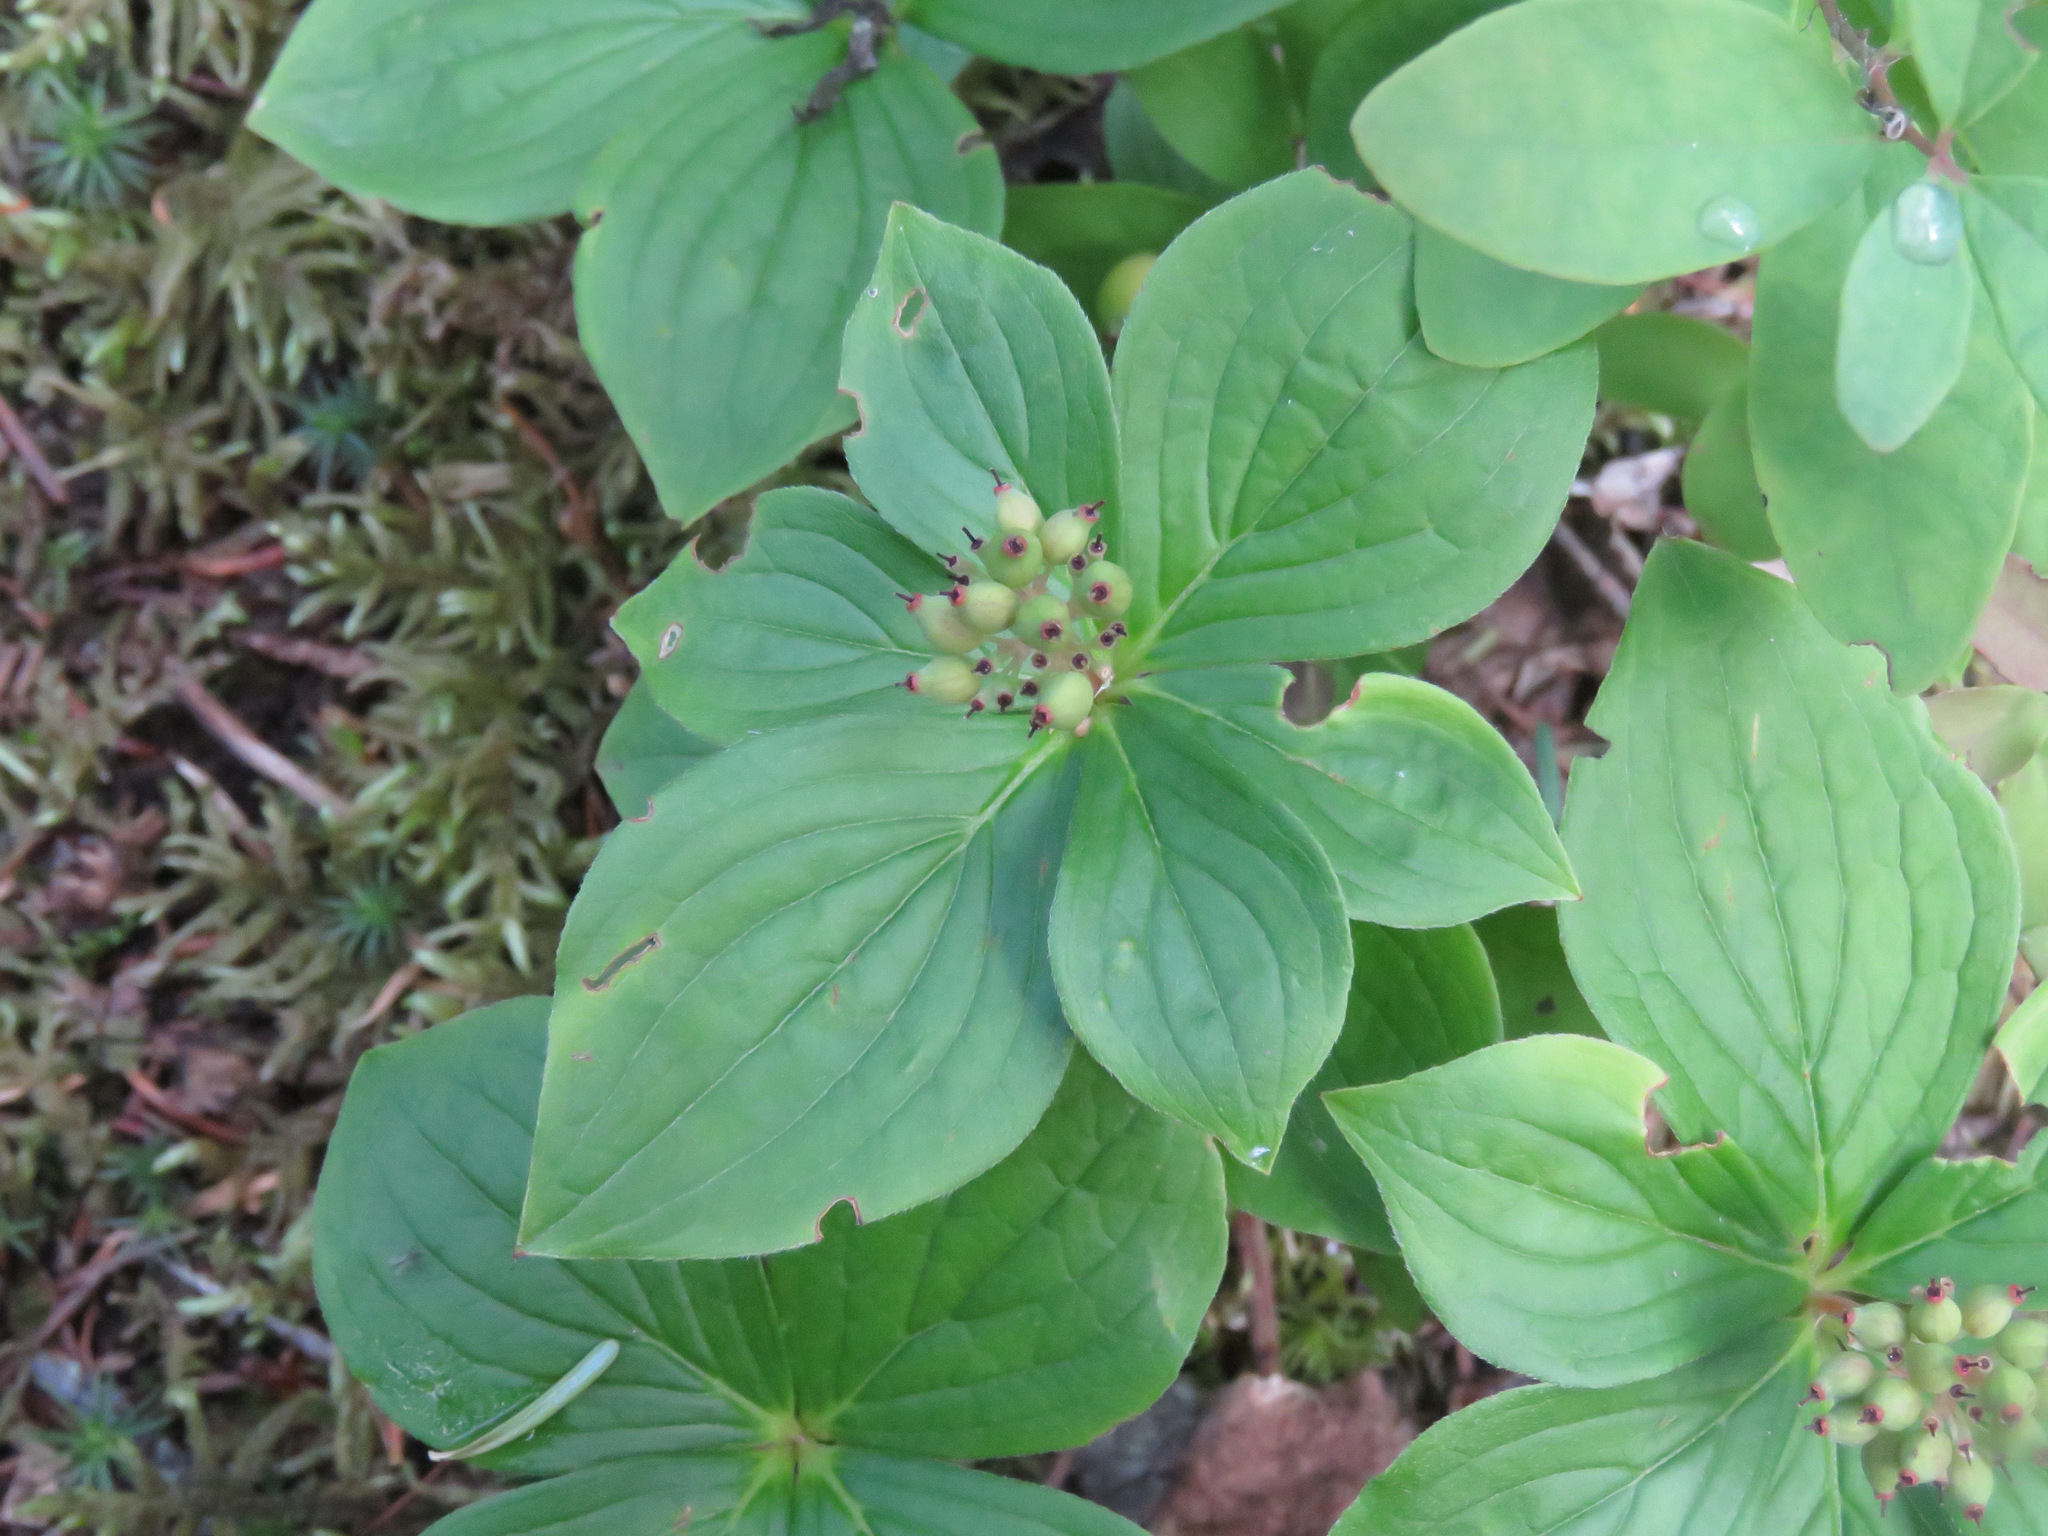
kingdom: Plantae
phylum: Tracheophyta
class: Magnoliopsida
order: Cornales
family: Cornaceae
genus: Cornus
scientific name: Cornus canadensis
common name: Creeping dogwood
